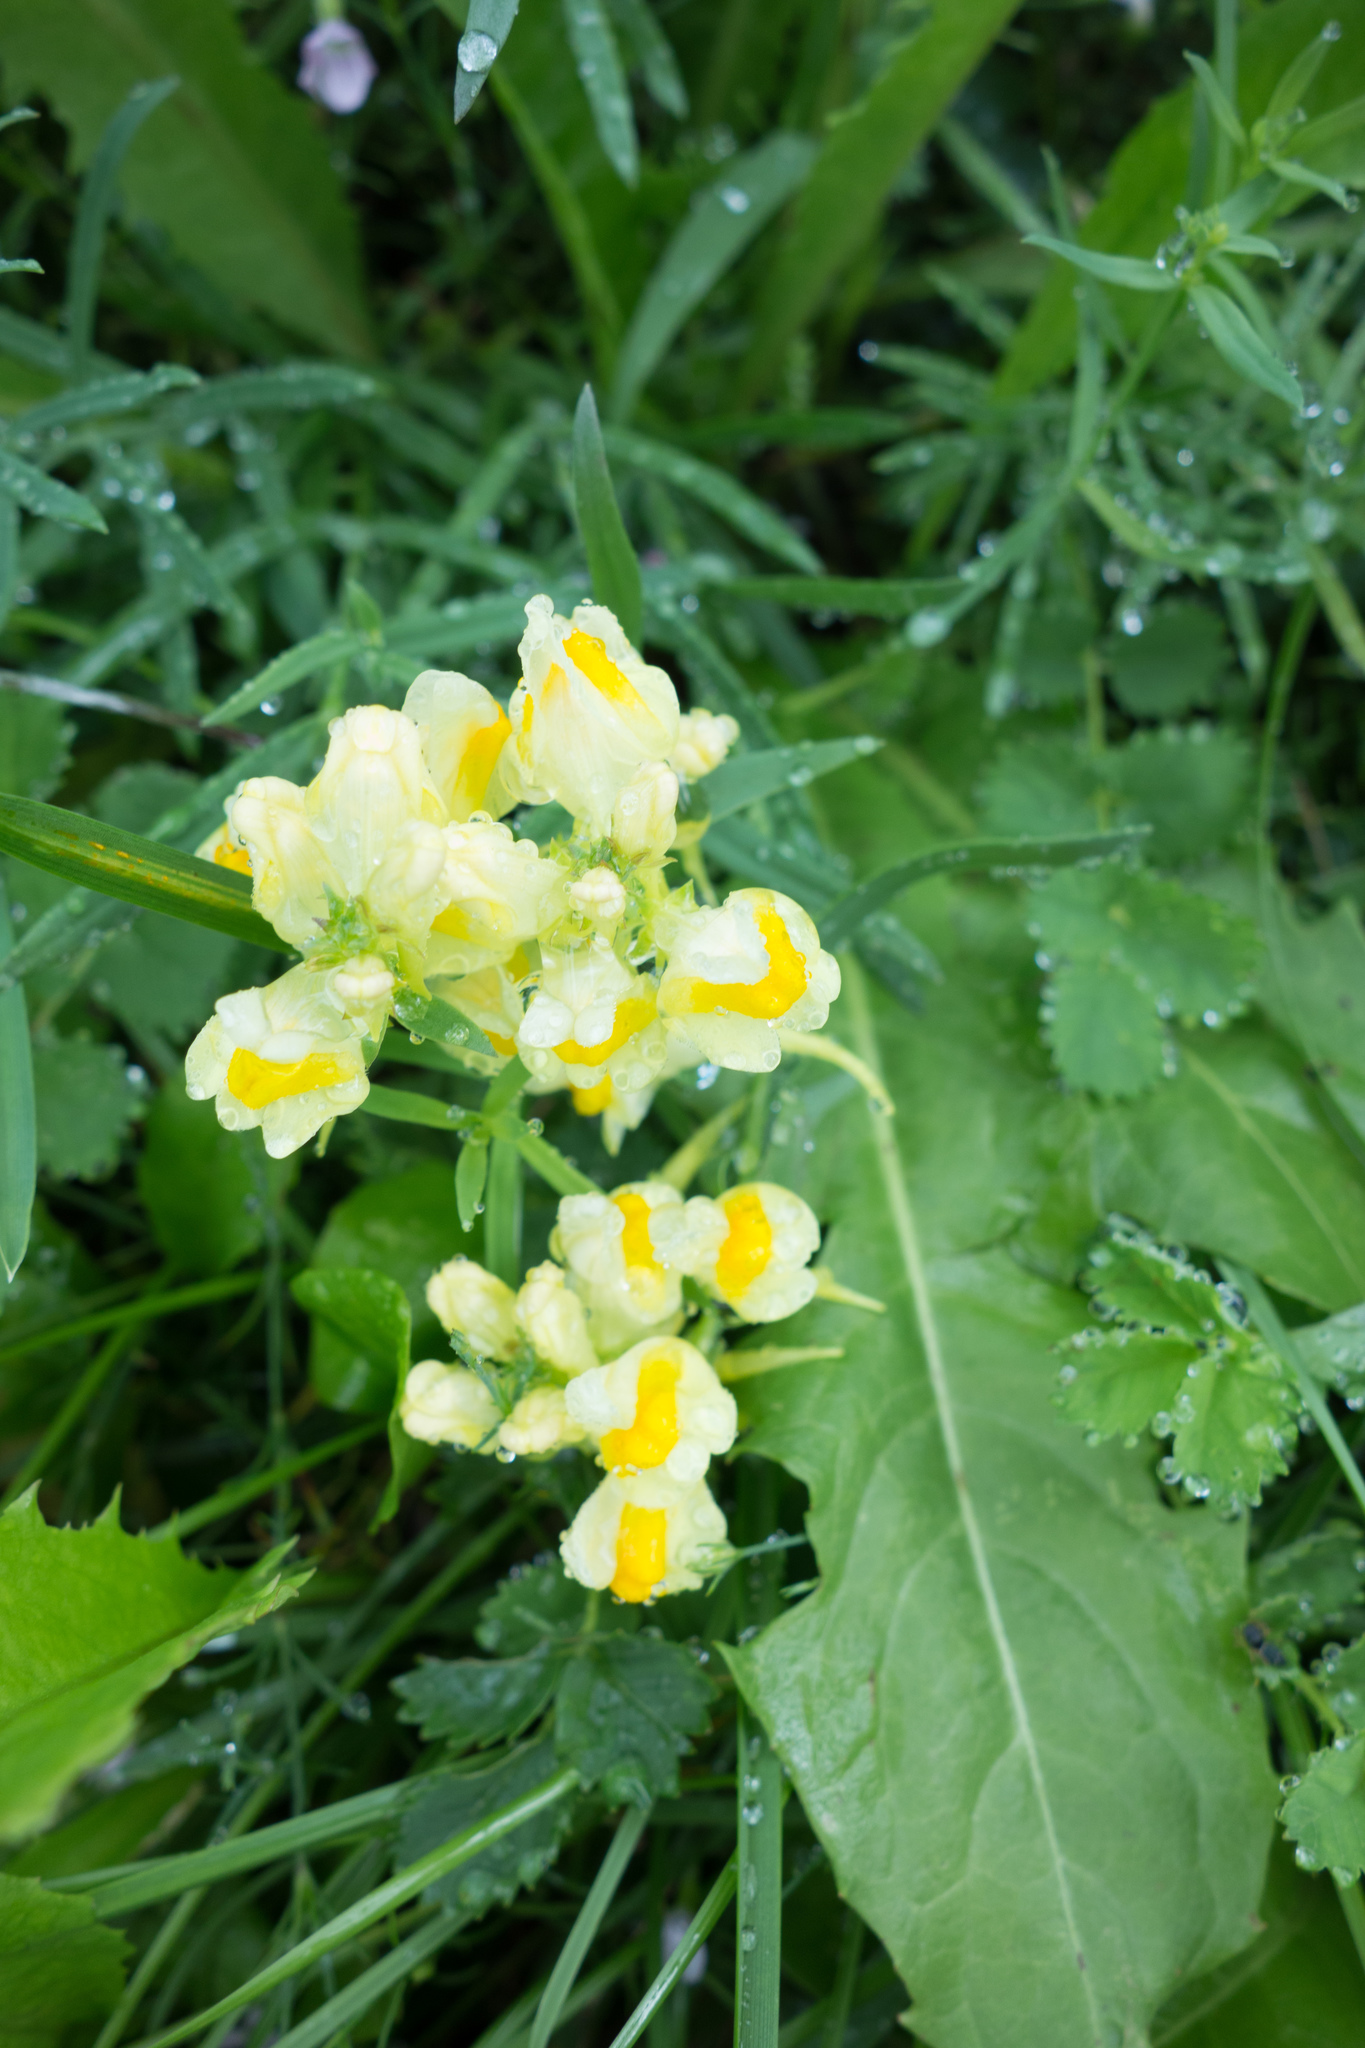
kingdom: Plantae
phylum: Tracheophyta
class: Magnoliopsida
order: Lamiales
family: Plantaginaceae
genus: Linaria
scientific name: Linaria vulgaris
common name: Butter and eggs
